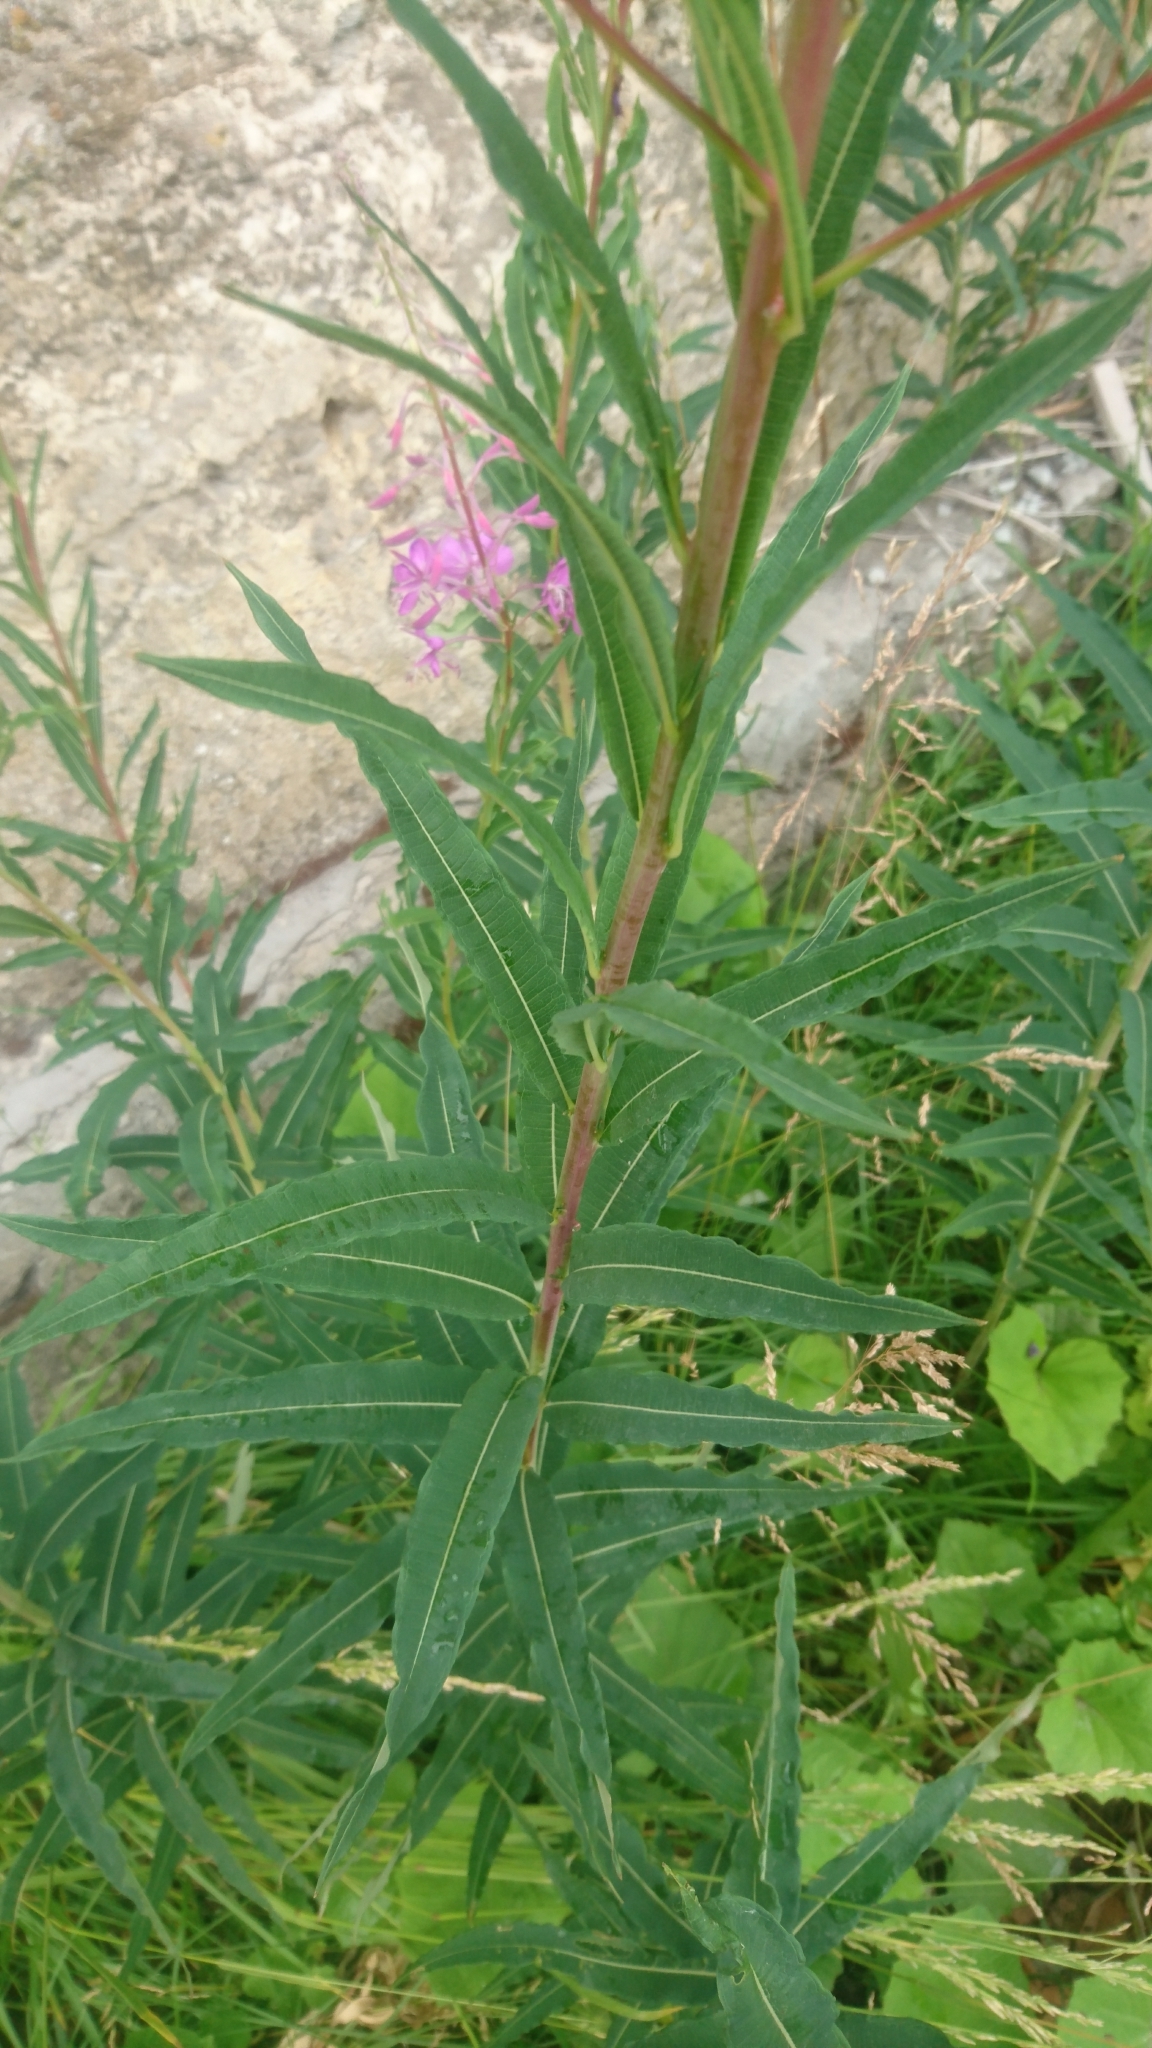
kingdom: Plantae
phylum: Tracheophyta
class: Magnoliopsida
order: Myrtales
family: Onagraceae
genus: Chamaenerion
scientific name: Chamaenerion angustifolium
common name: Fireweed
